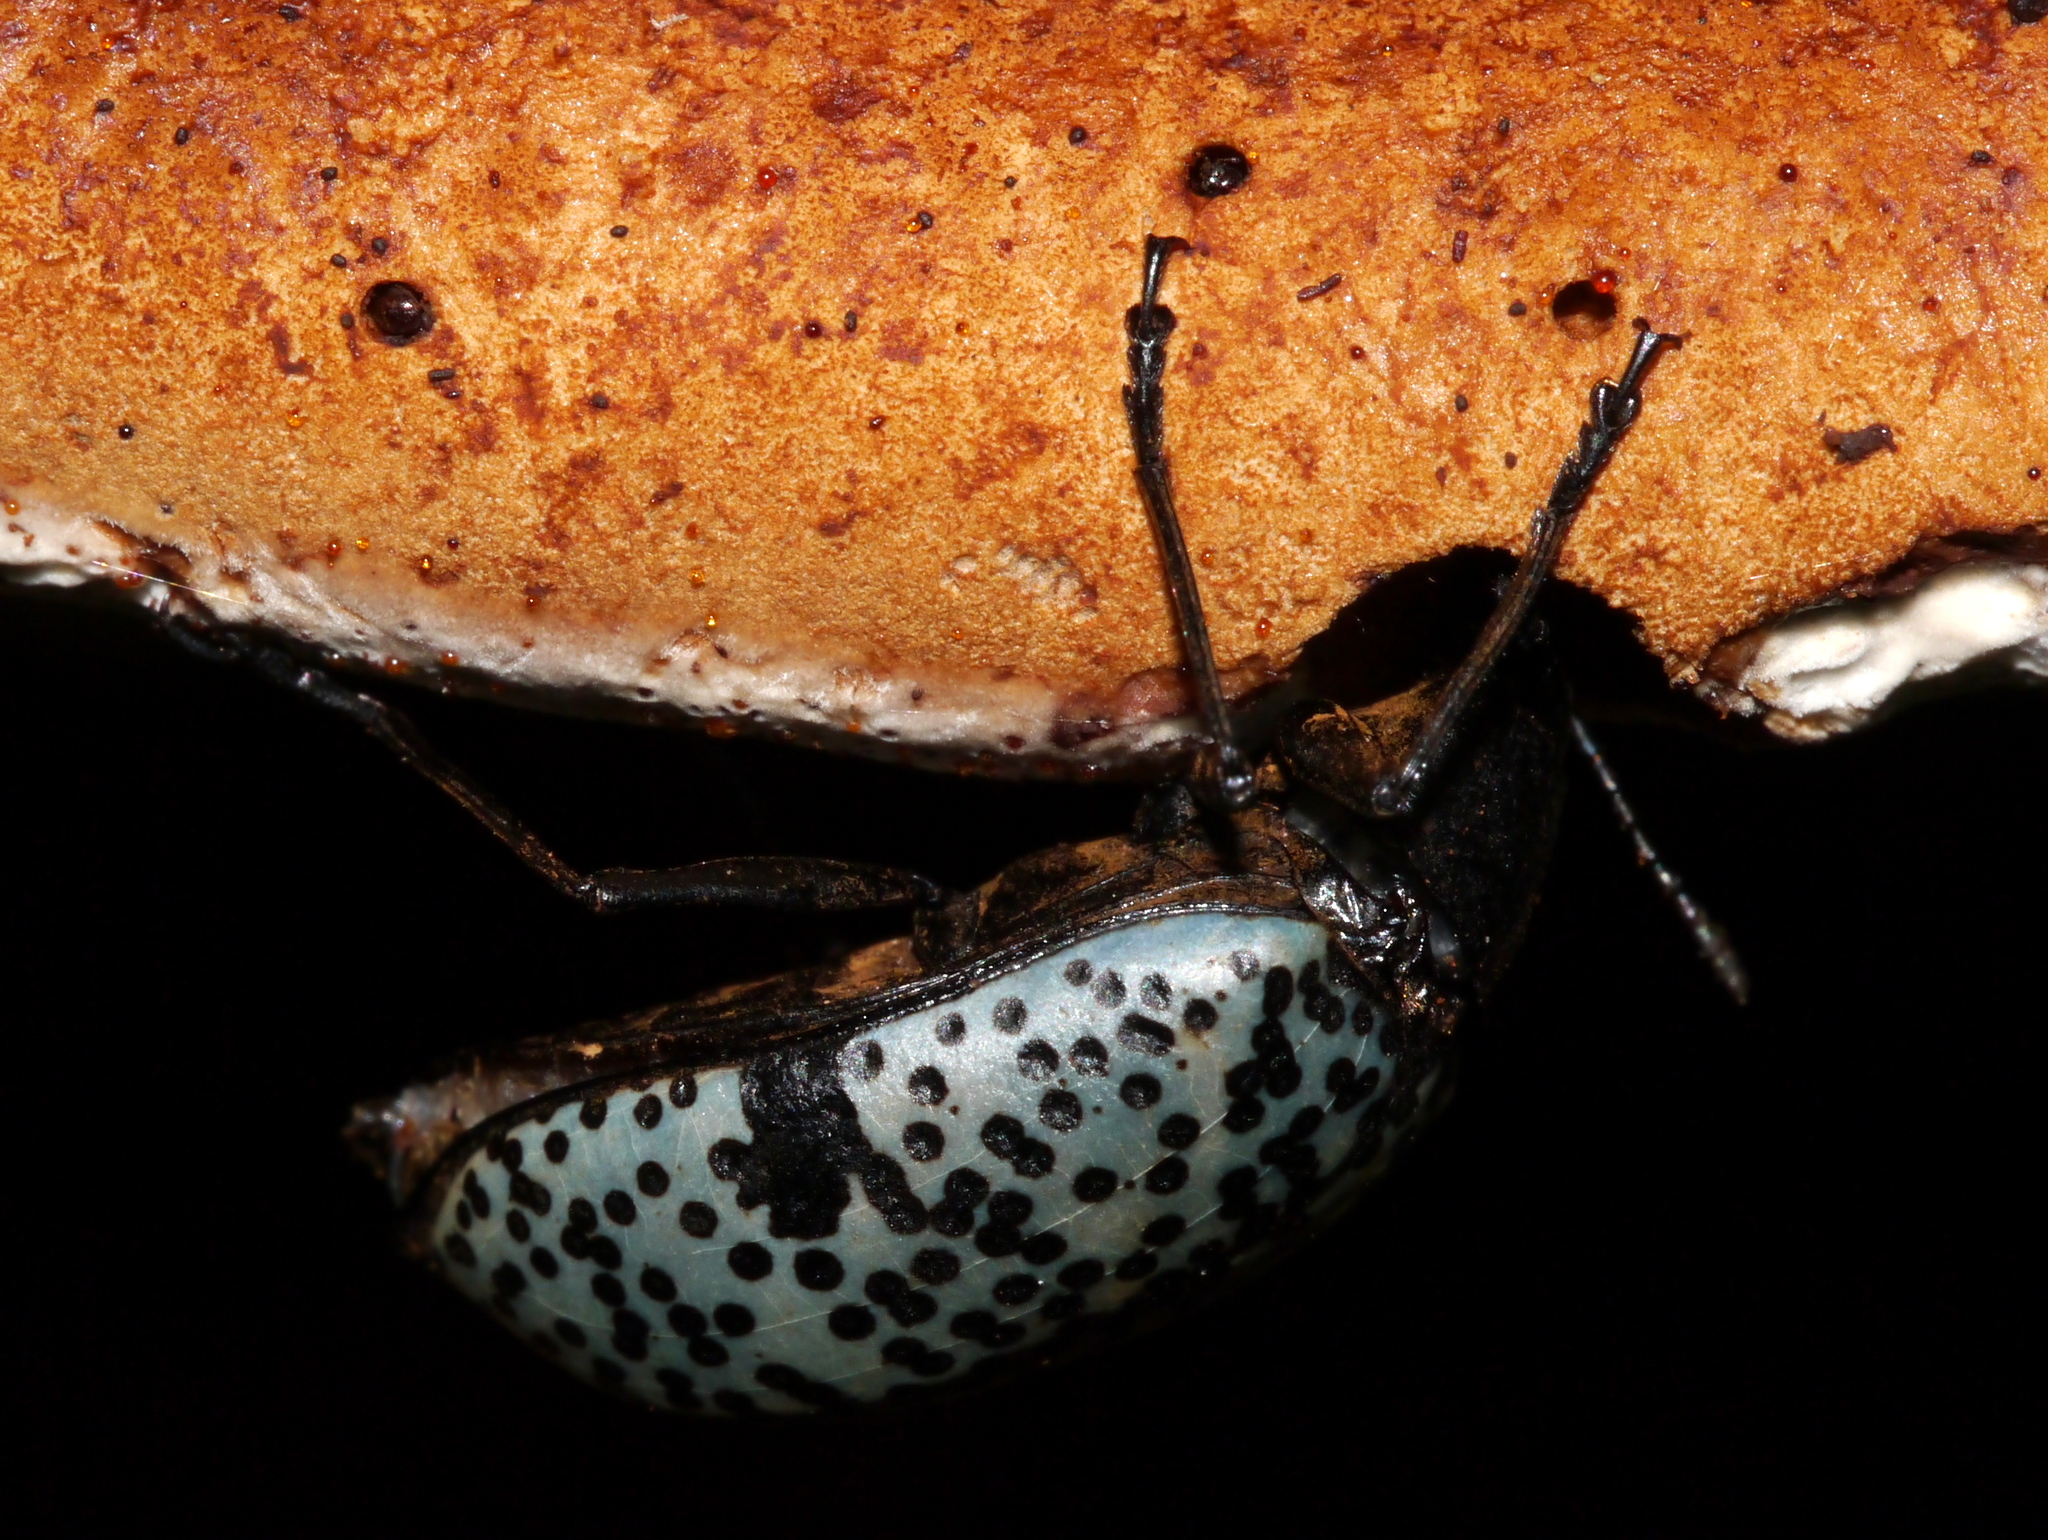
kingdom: Animalia
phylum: Arthropoda
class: Insecta
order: Coleoptera
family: Erotylidae
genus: Gibbifer
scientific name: Gibbifer californicus
